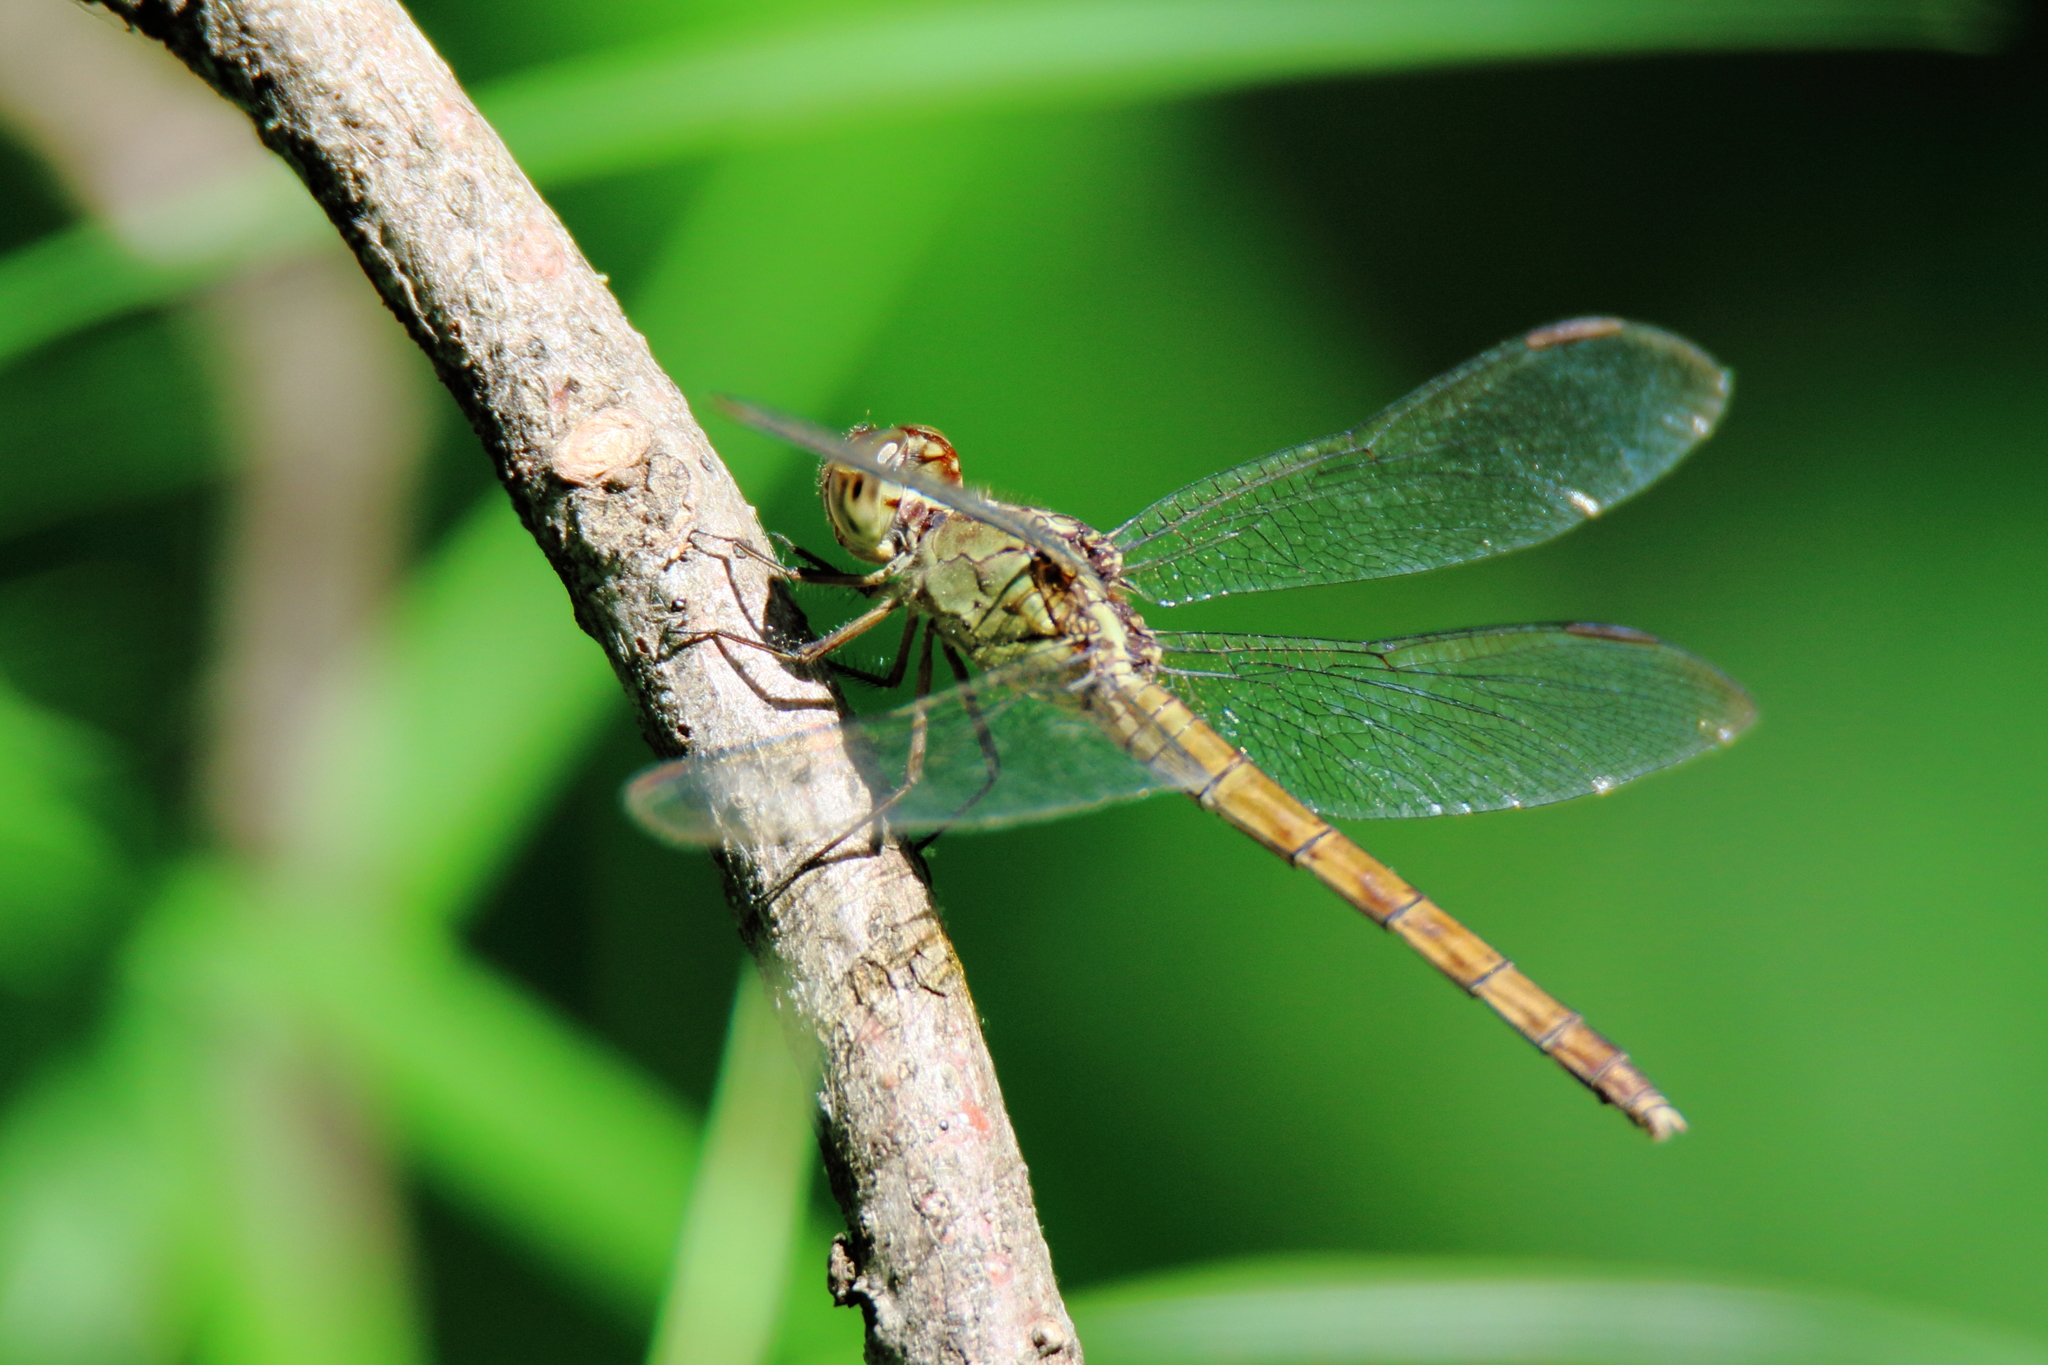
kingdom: Animalia
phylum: Arthropoda
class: Insecta
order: Odonata
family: Libellulidae
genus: Erythrodiplax
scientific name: Erythrodiplax umbrata
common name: Band-winged dragonlet
